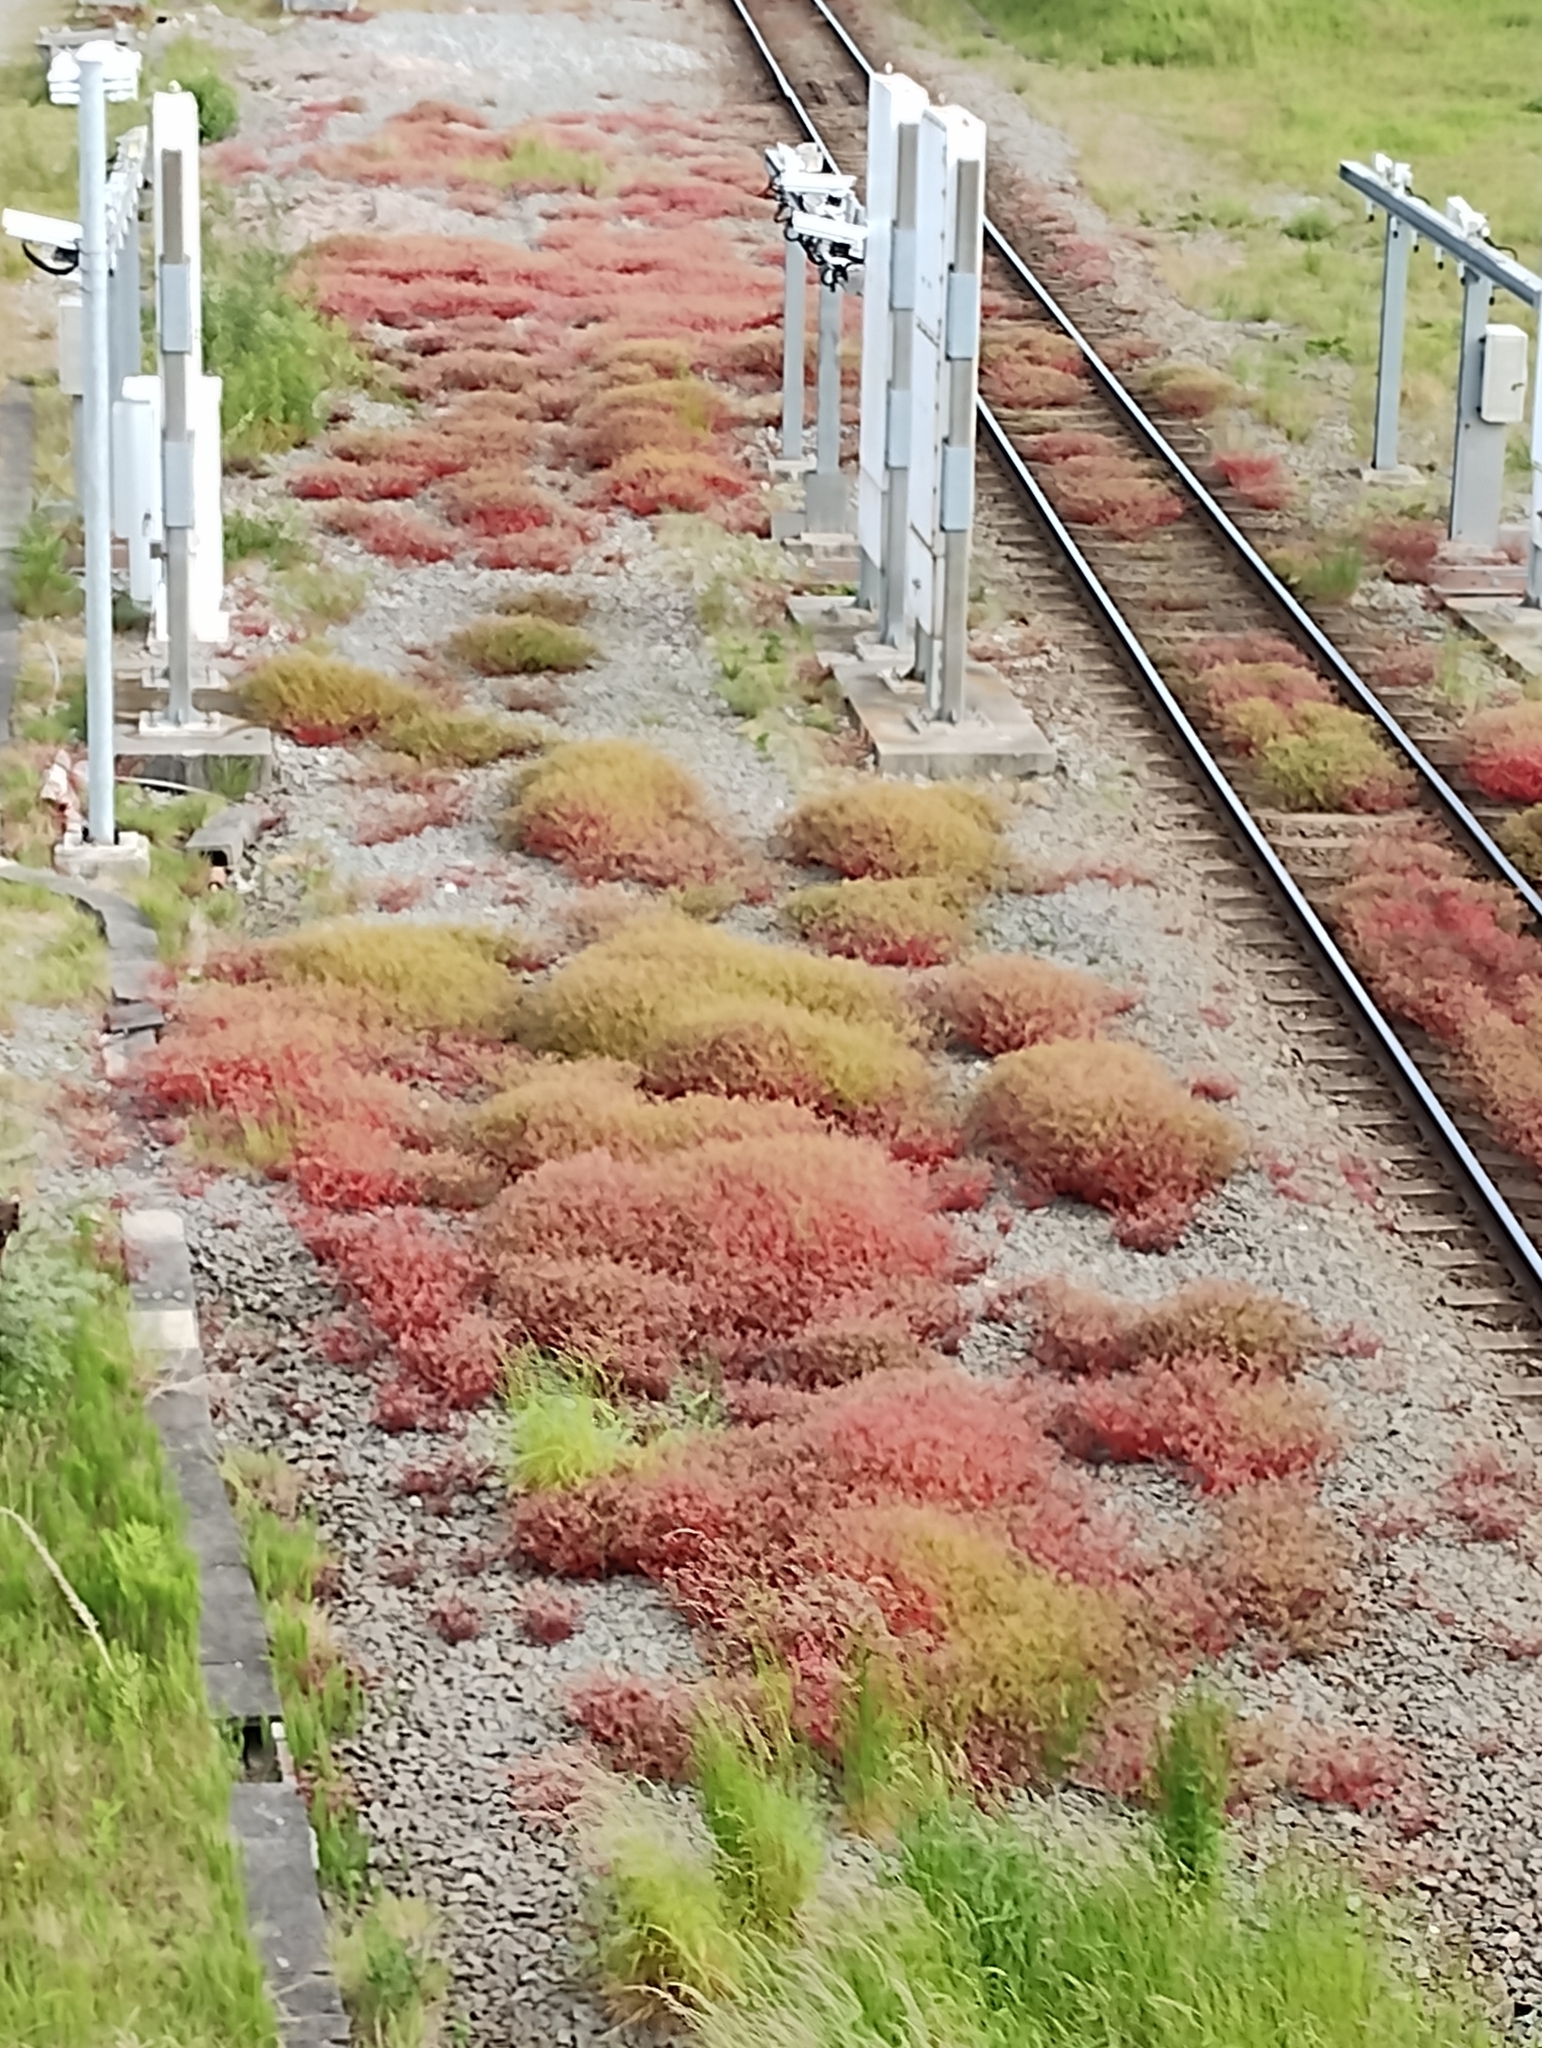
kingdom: Plantae
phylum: Tracheophyta
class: Magnoliopsida
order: Geraniales
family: Geraniaceae
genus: Geranium
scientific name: Geranium purpureum
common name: Little-robin
